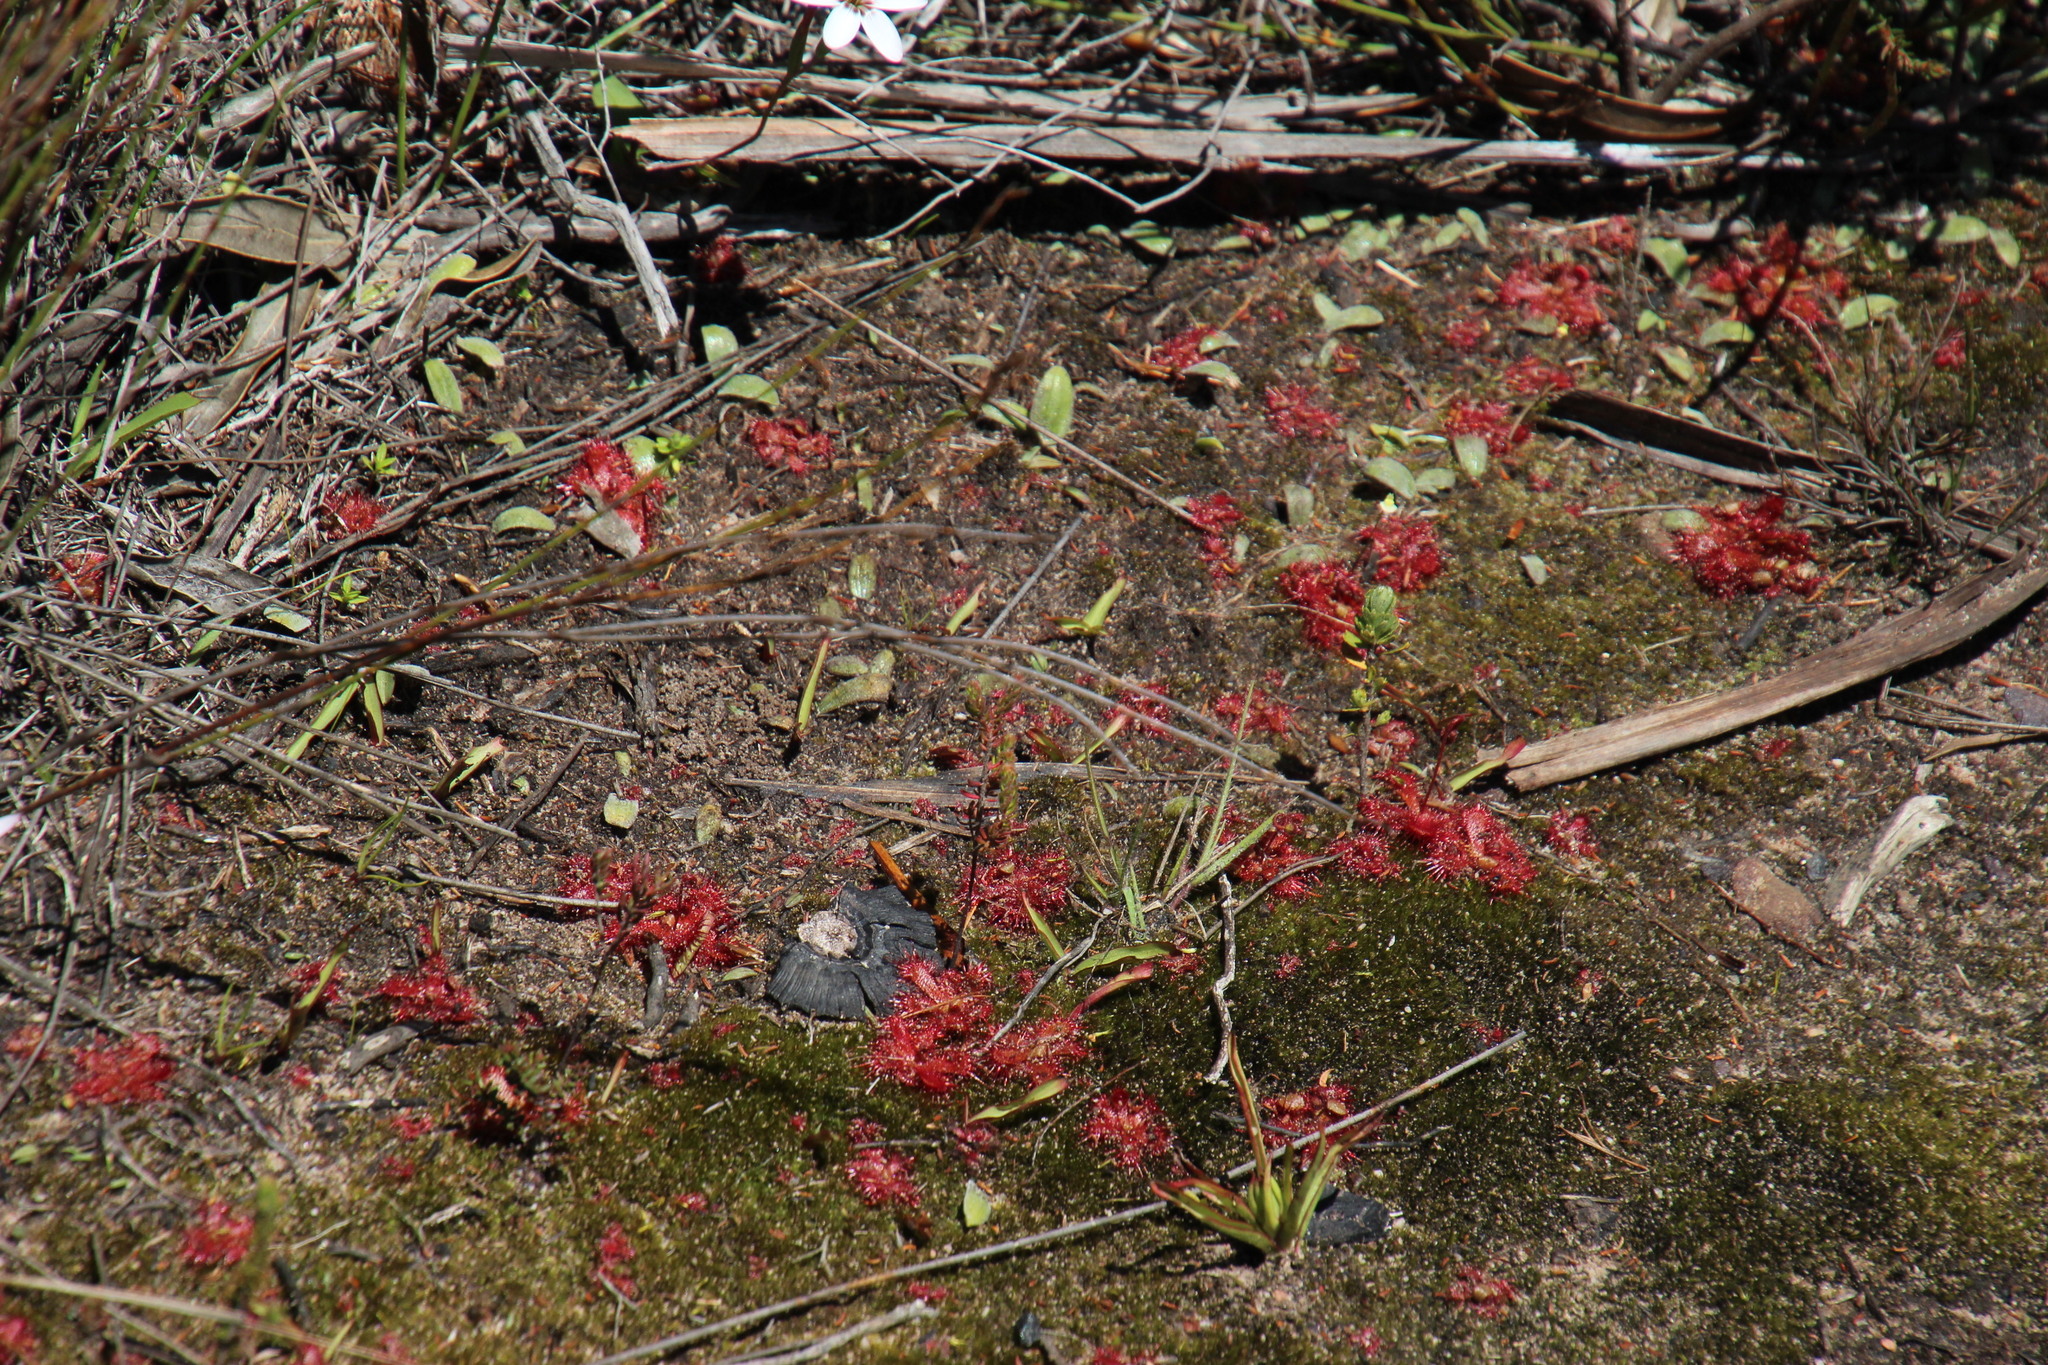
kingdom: Plantae
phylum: Tracheophyta
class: Magnoliopsida
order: Caryophyllales
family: Droseraceae
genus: Drosera
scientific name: Drosera trinervia
